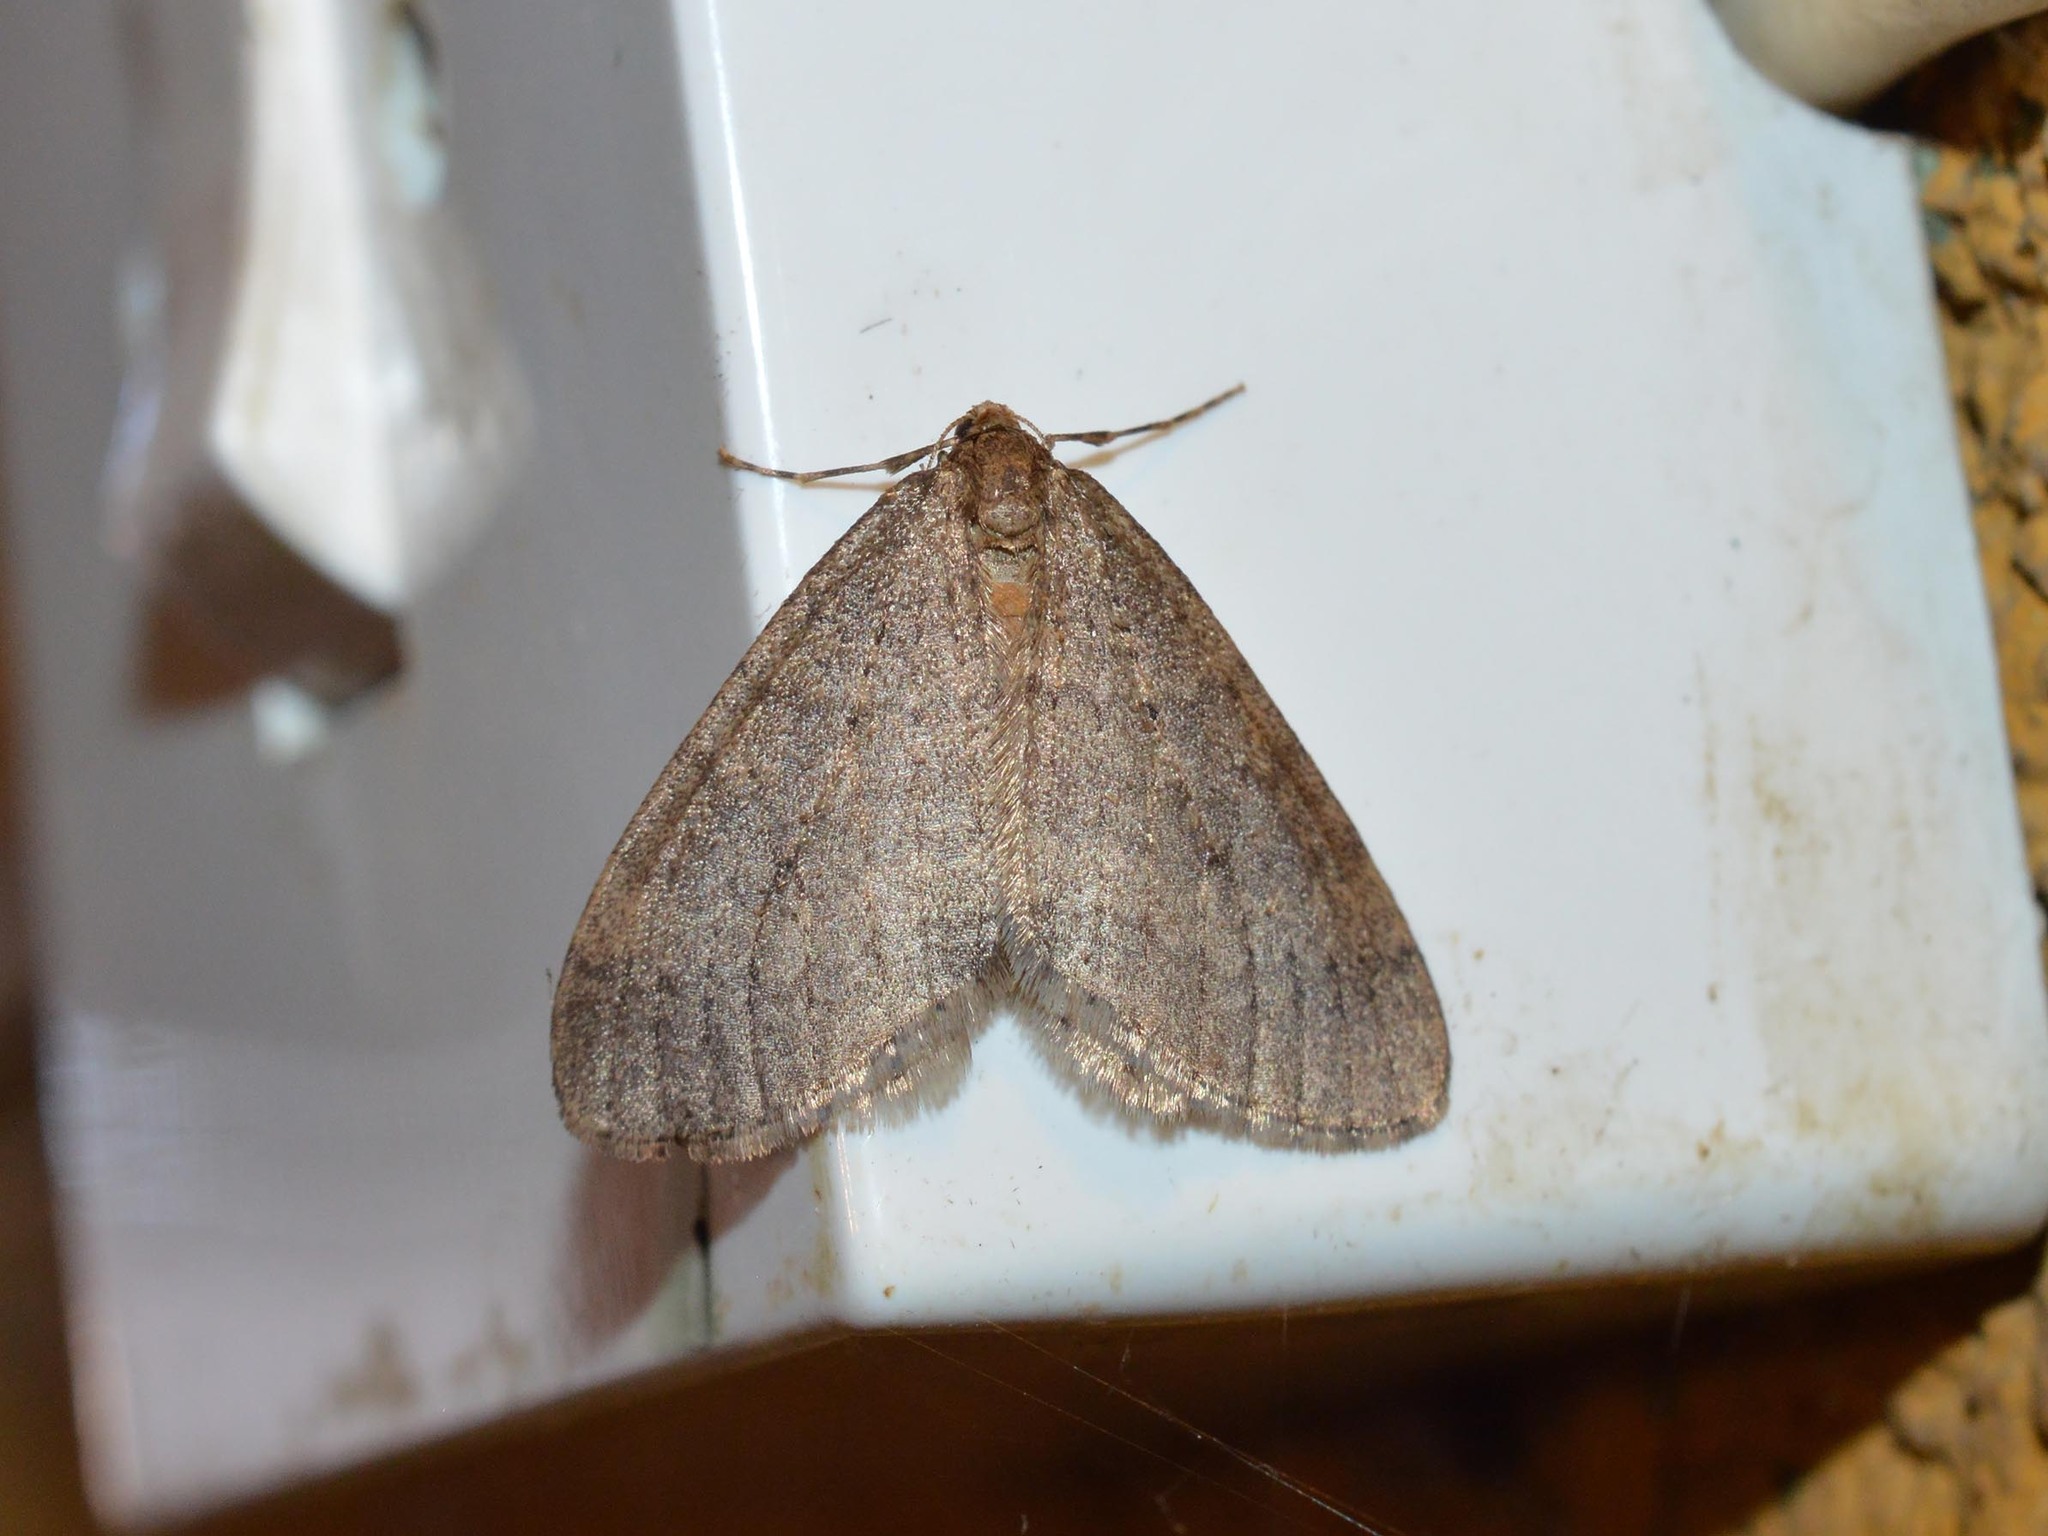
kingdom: Animalia
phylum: Arthropoda
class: Insecta
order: Lepidoptera
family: Geometridae
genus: Operophtera
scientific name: Operophtera brumata
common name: Winter moth
